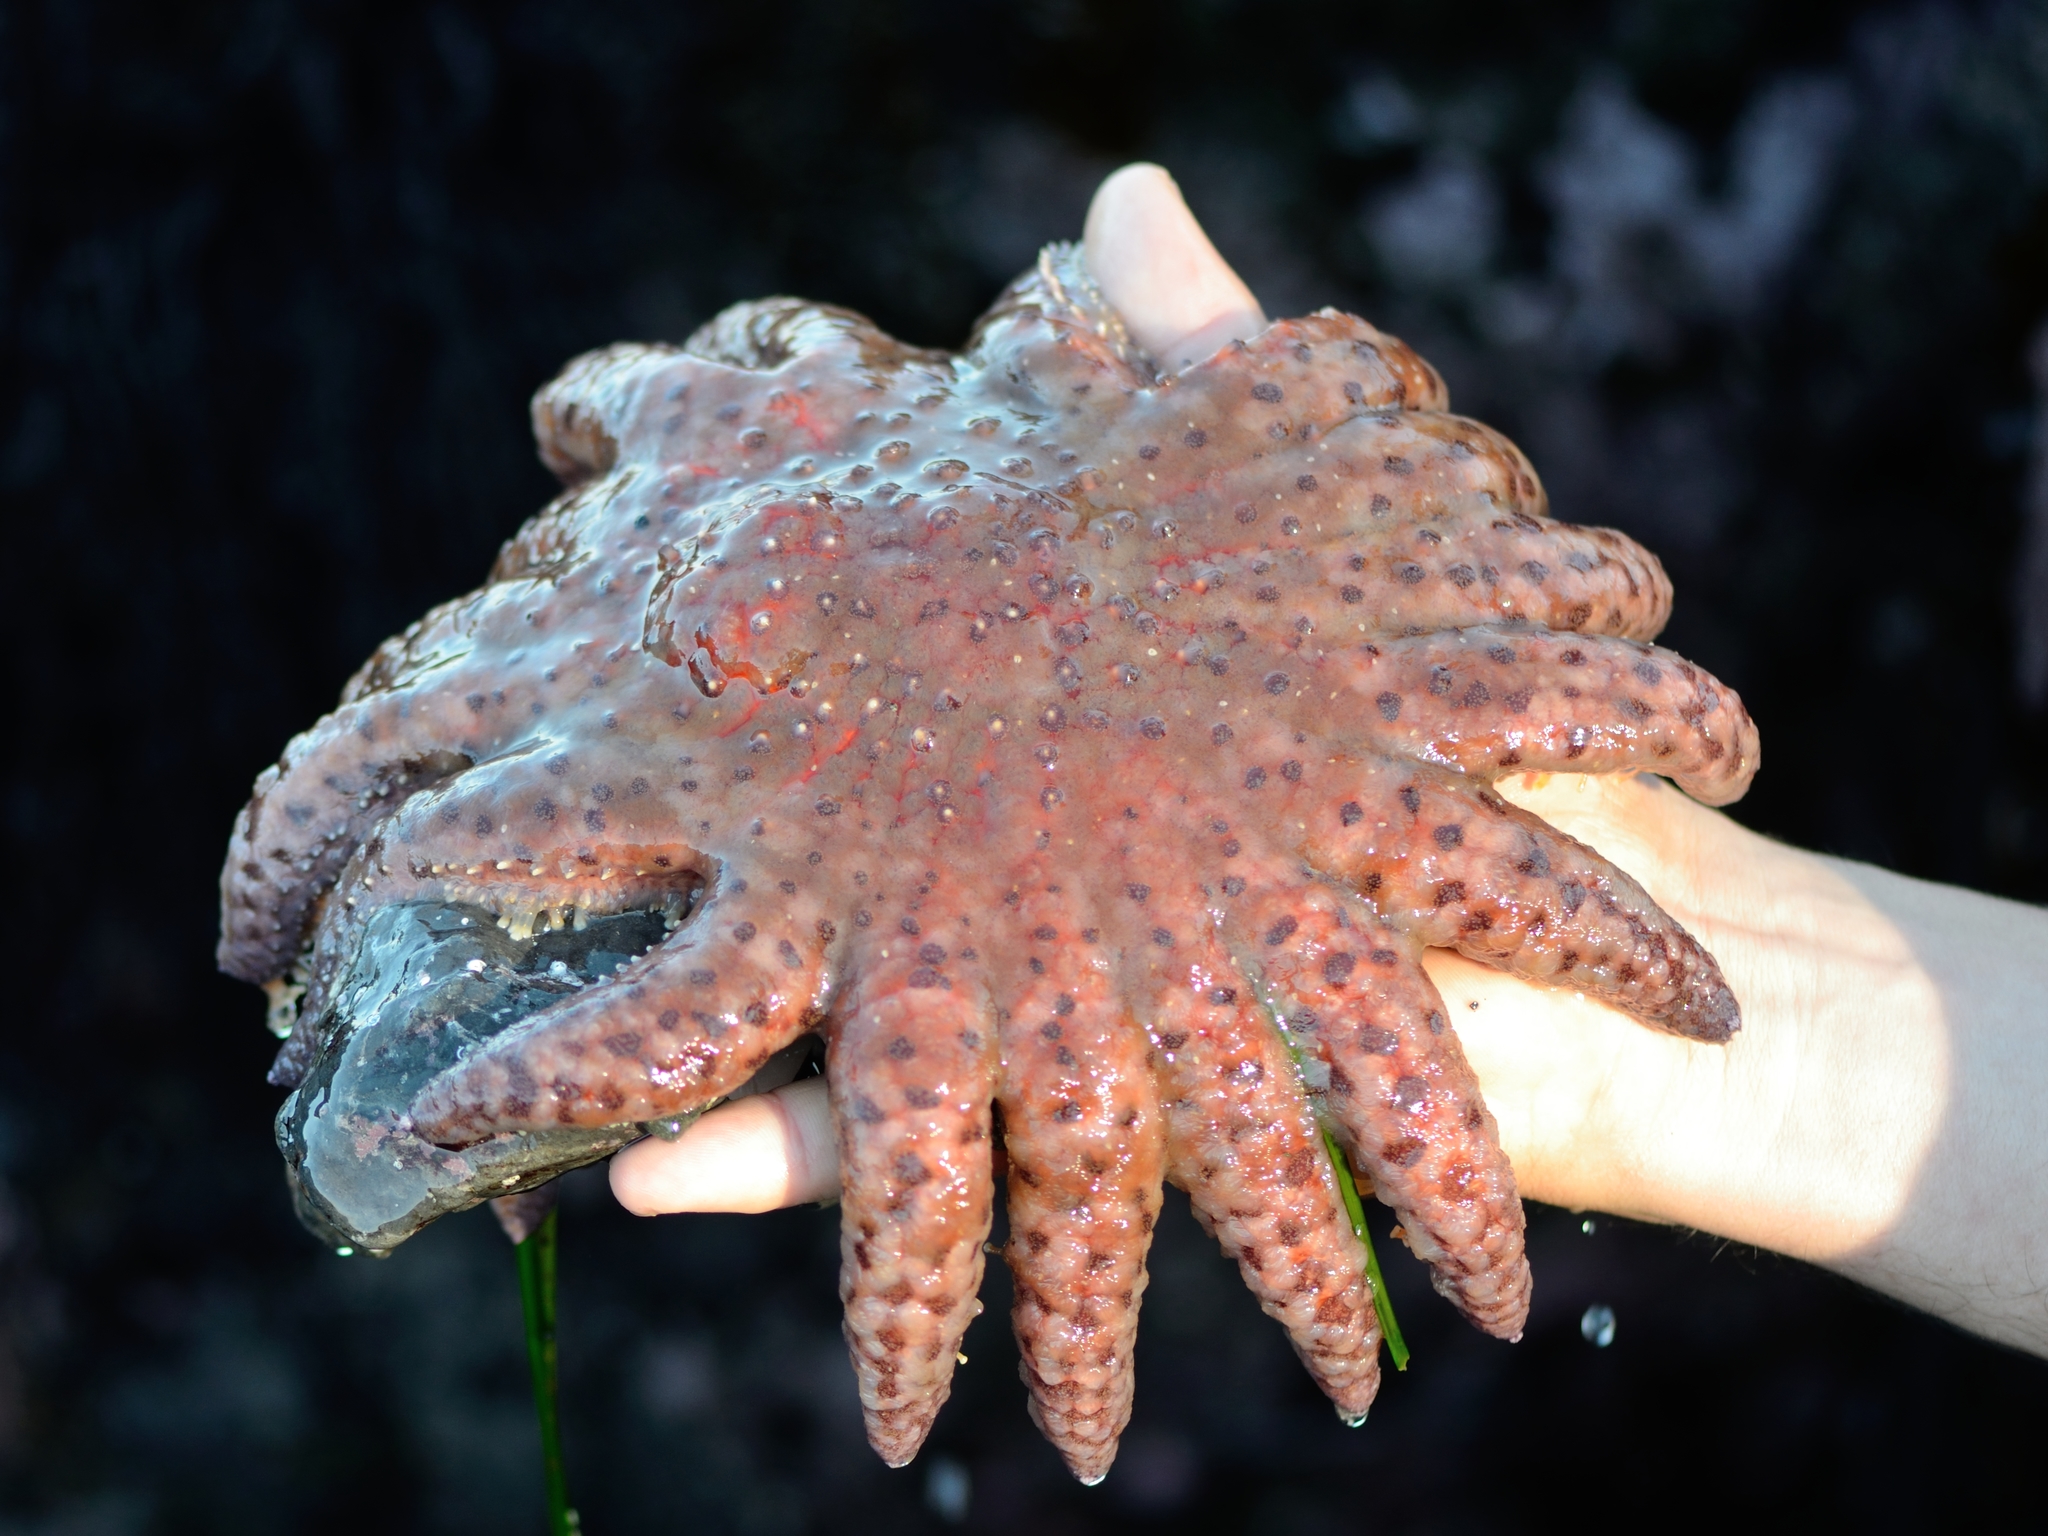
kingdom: Animalia
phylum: Echinodermata
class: Asteroidea
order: Forcipulatida
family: Asteriidae
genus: Pycnopodia
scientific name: Pycnopodia helianthoides
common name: Rag mop
